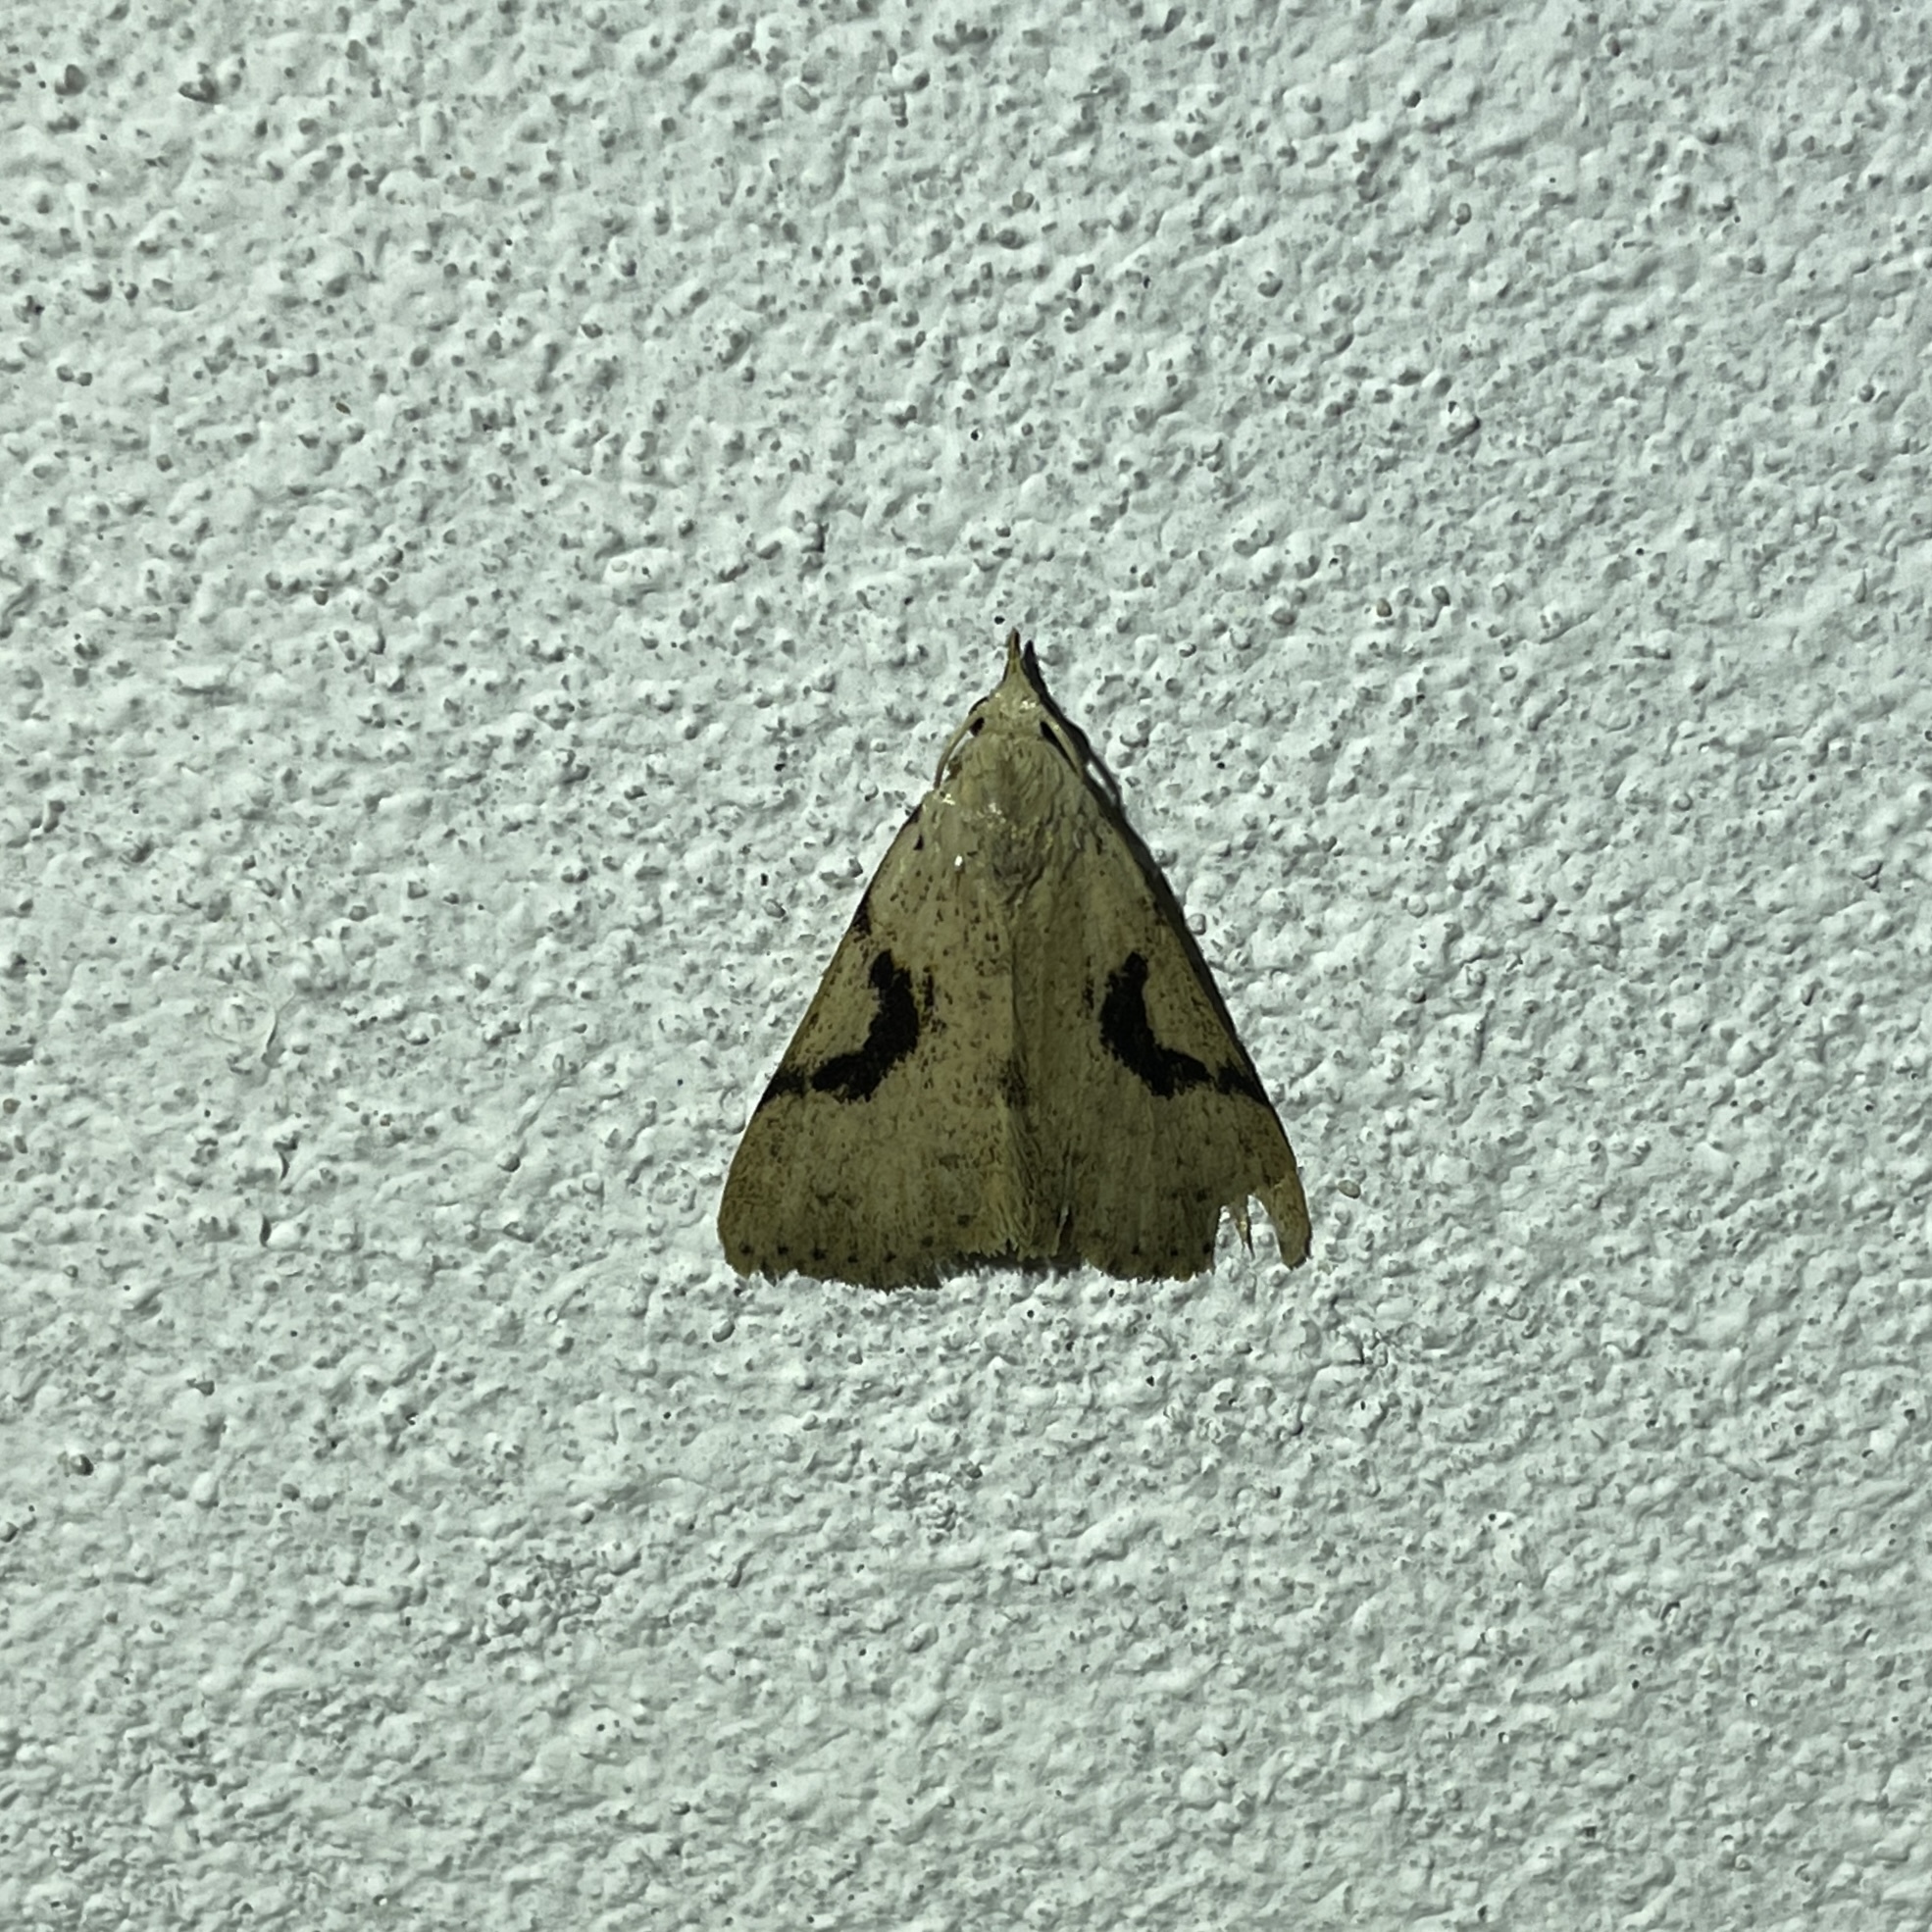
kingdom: Animalia
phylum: Arthropoda
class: Insecta
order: Lepidoptera
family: Erebidae
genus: Acanthermia
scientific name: Acanthermia concatenalis
